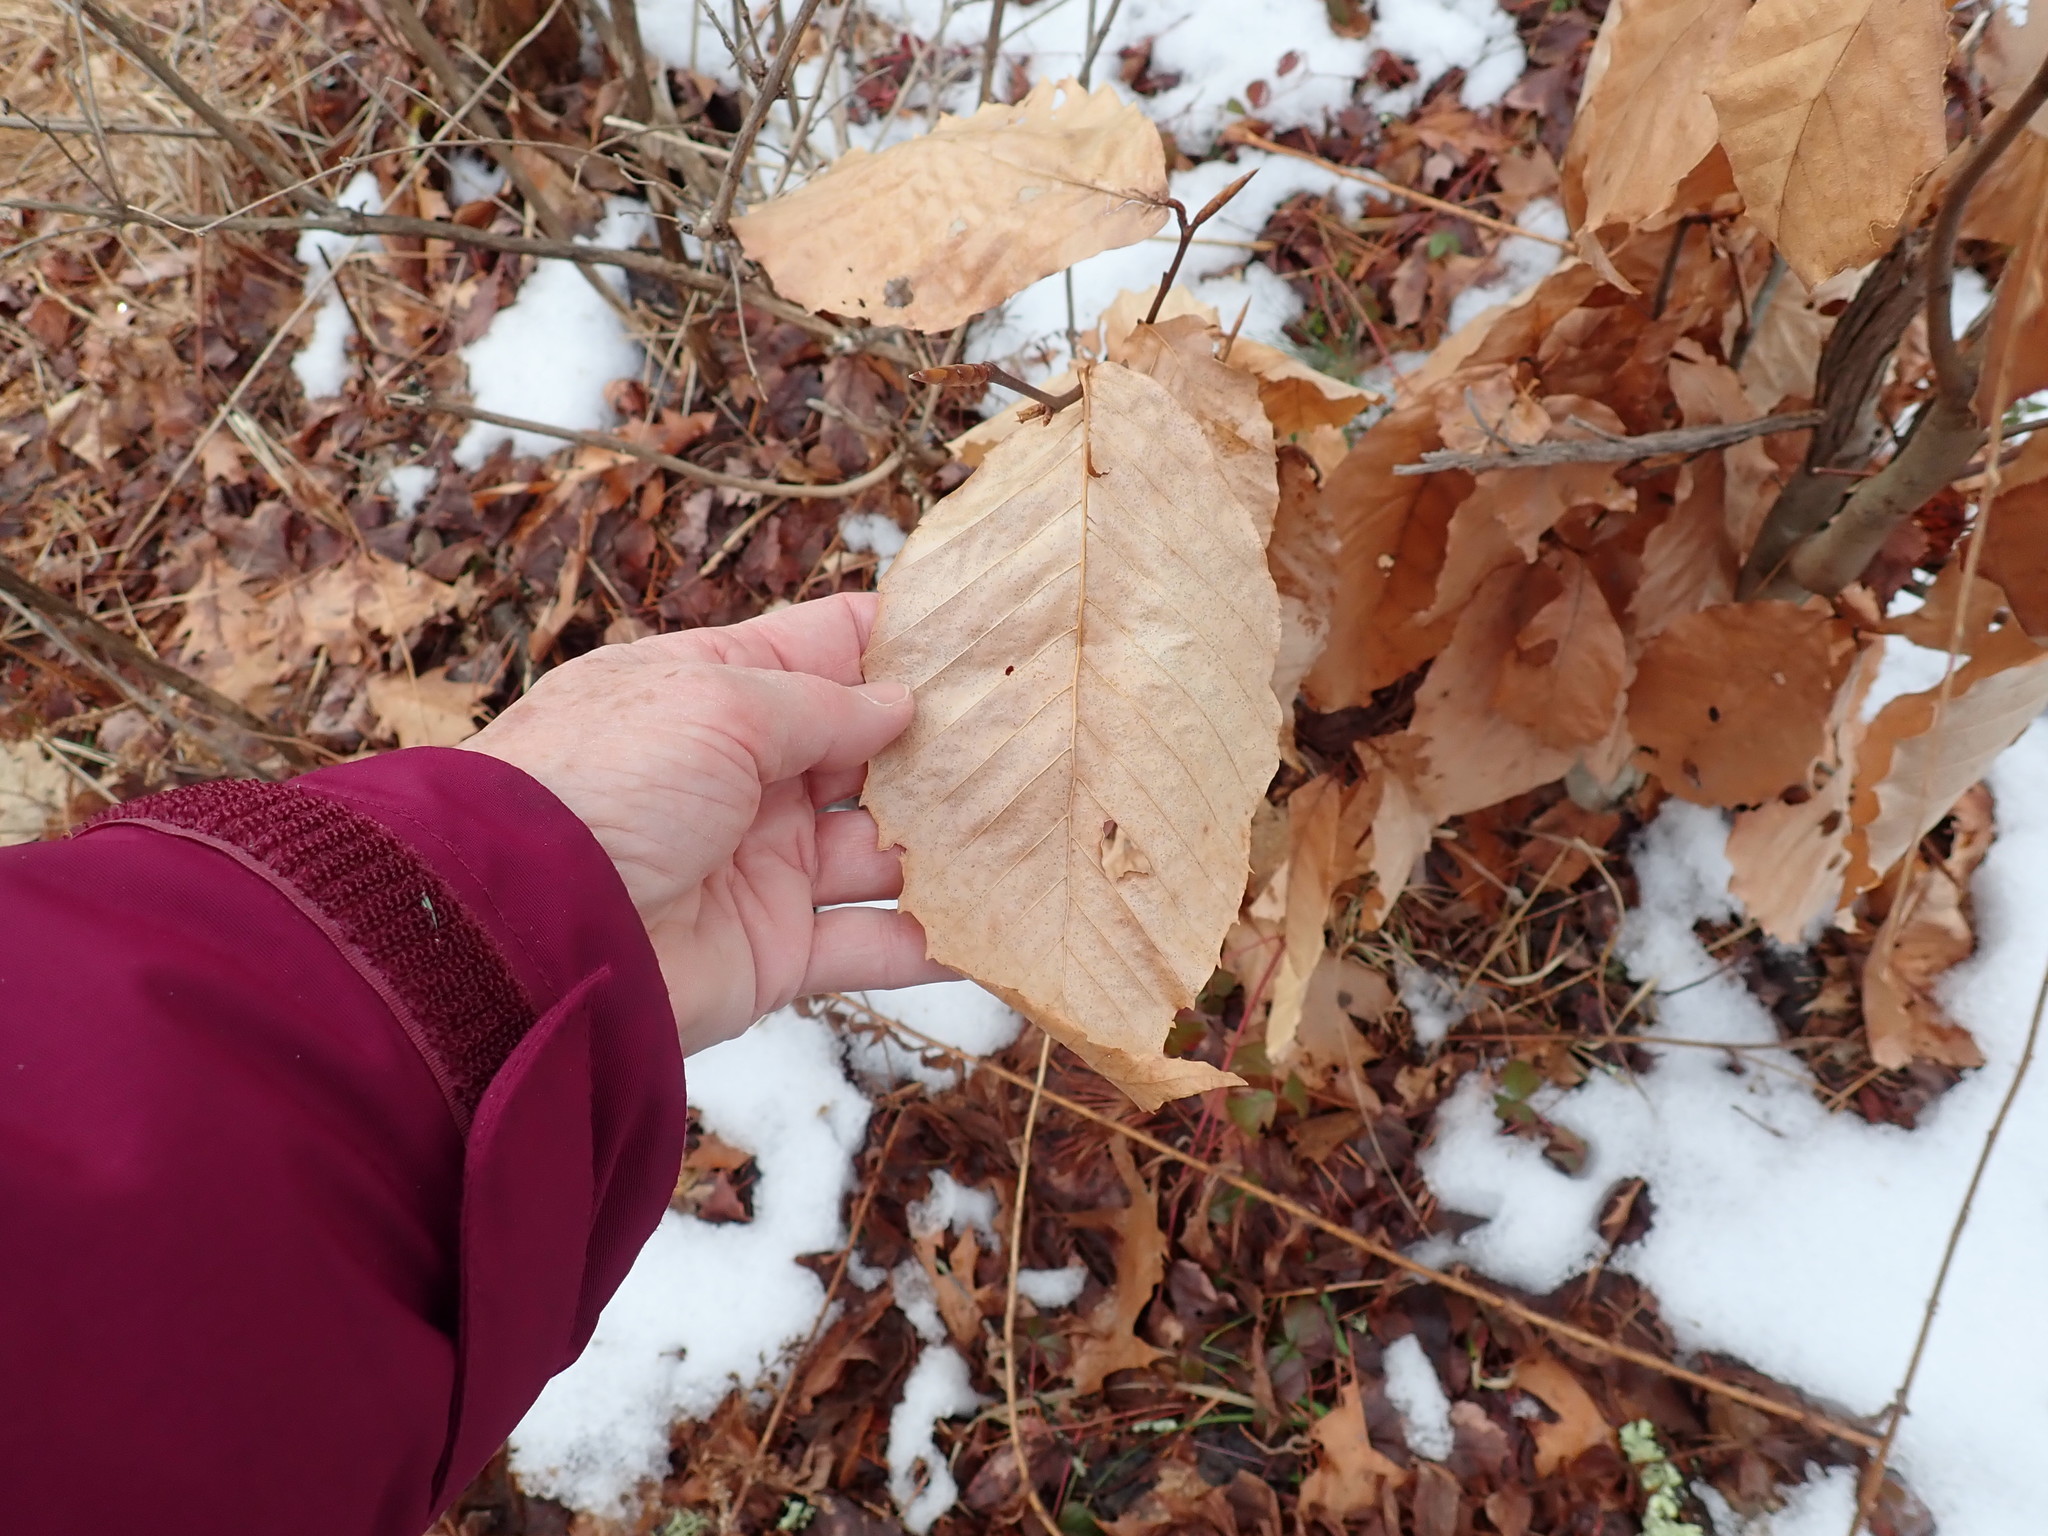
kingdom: Plantae
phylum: Tracheophyta
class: Magnoliopsida
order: Fagales
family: Fagaceae
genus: Fagus
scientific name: Fagus grandifolia
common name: American beech
